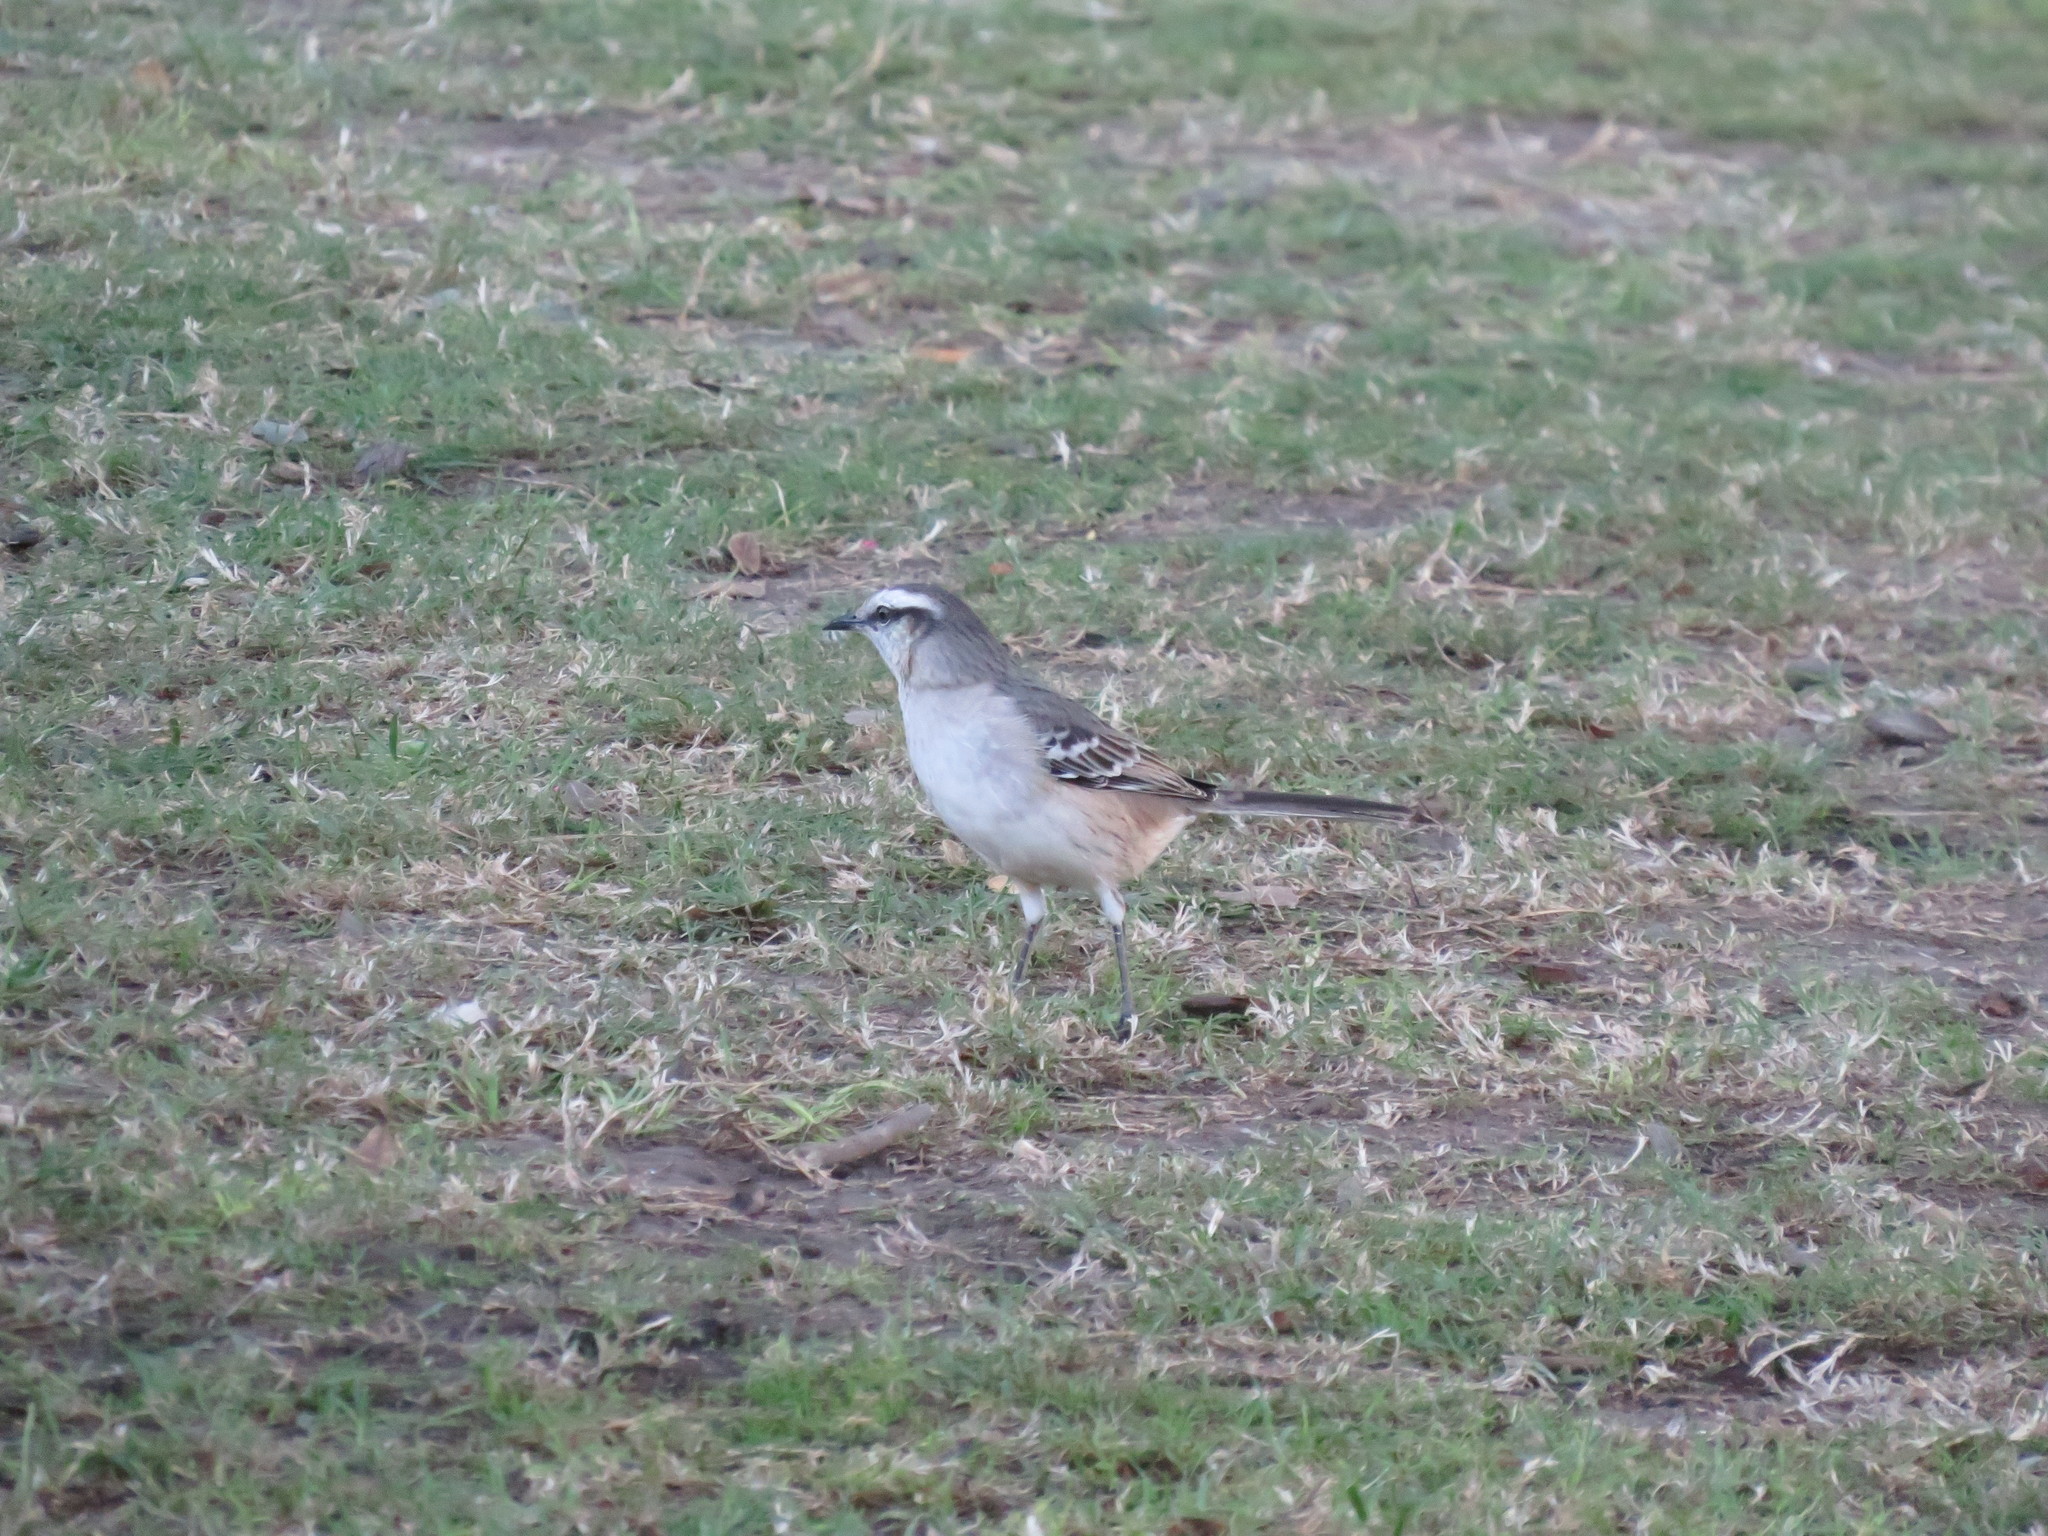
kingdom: Animalia
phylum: Chordata
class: Aves
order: Passeriformes
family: Mimidae
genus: Mimus
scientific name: Mimus saturninus
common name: Chalk-browed mockingbird
